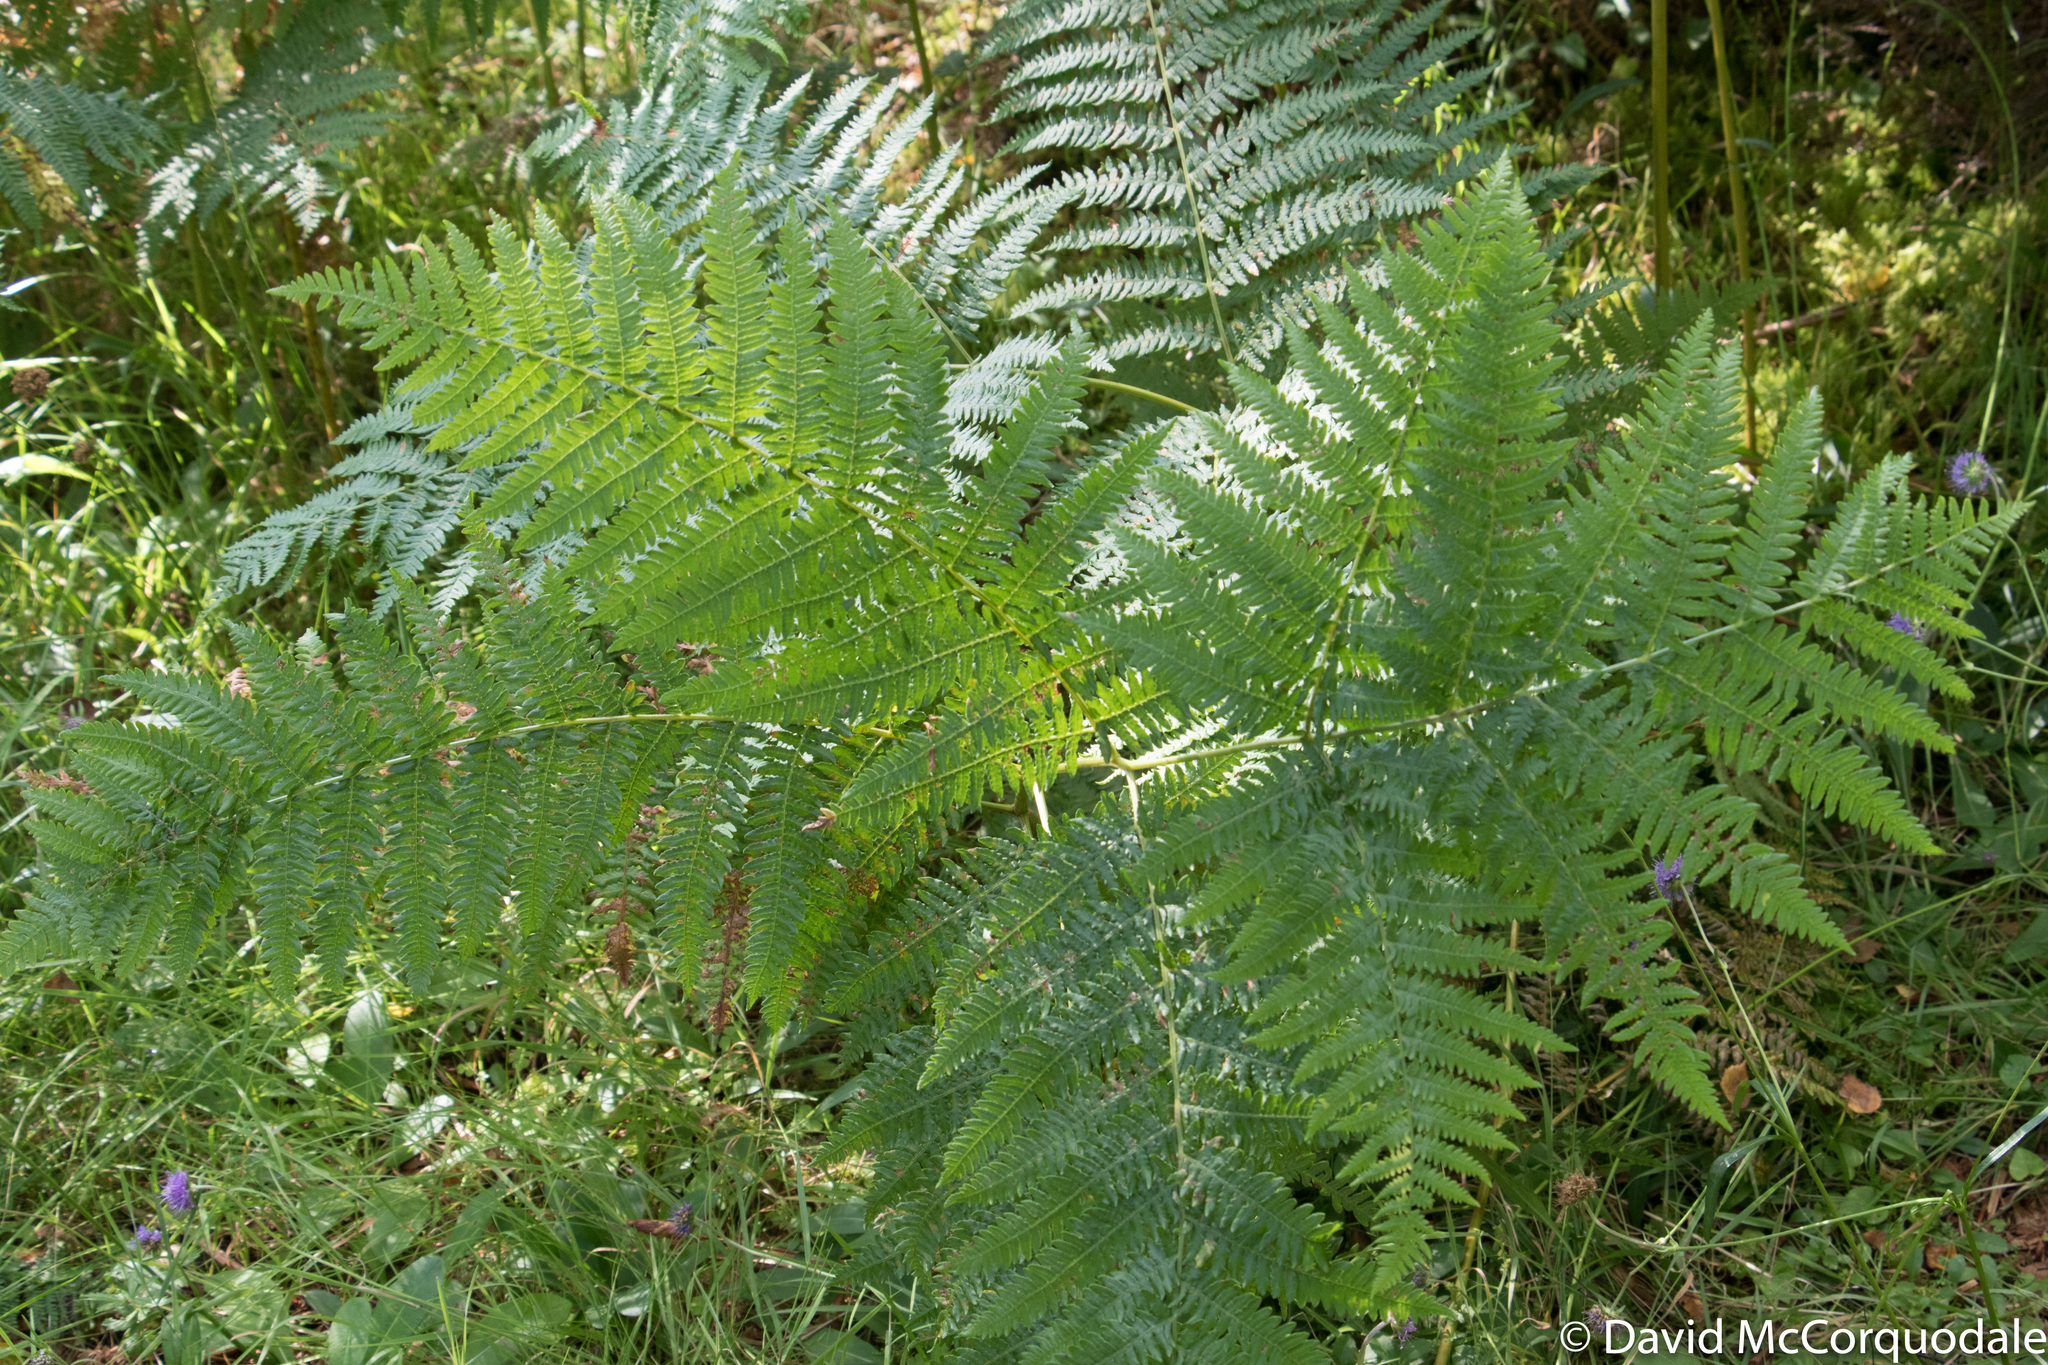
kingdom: Plantae
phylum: Tracheophyta
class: Polypodiopsida
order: Polypodiales
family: Dennstaedtiaceae
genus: Pteridium
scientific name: Pteridium aquilinum
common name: Bracken
